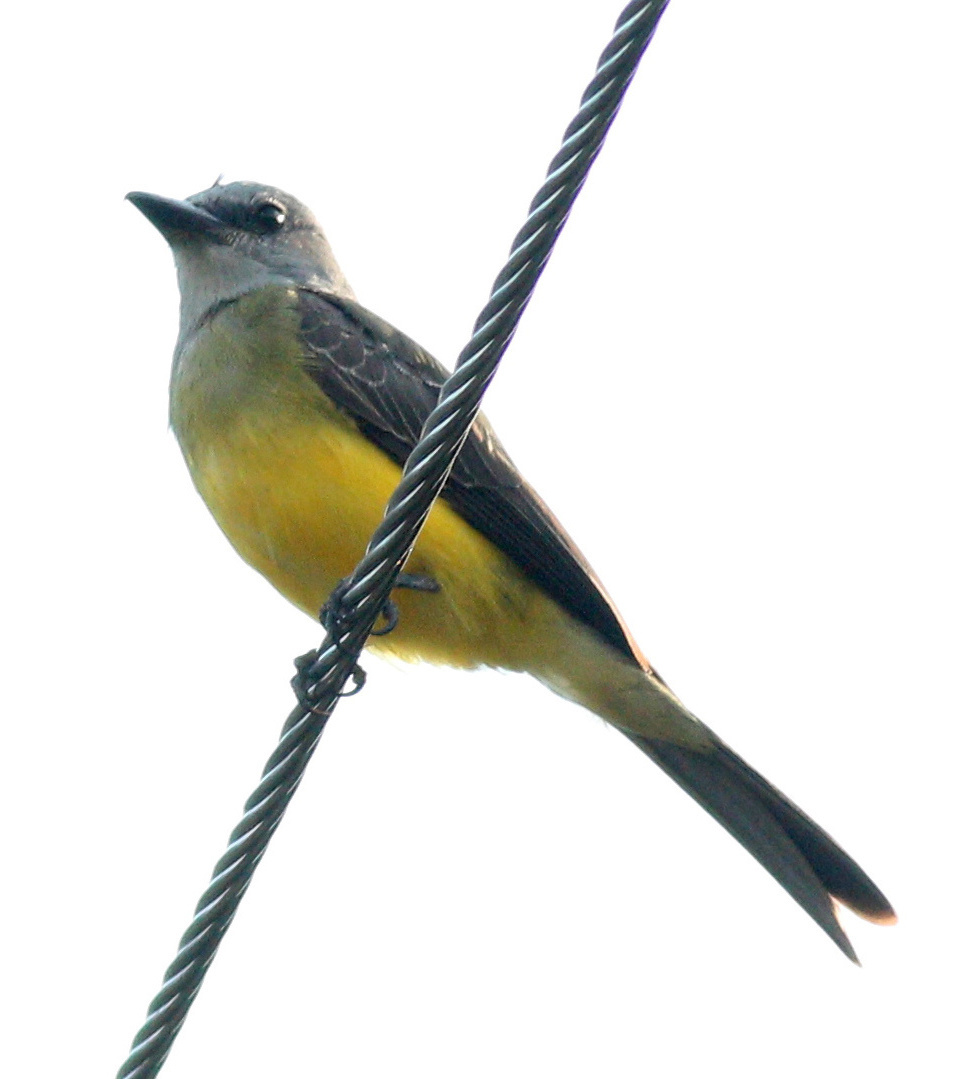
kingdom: Animalia
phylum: Chordata
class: Aves
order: Passeriformes
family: Tyrannidae
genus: Tyrannus
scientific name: Tyrannus melancholicus
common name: Tropical kingbird
